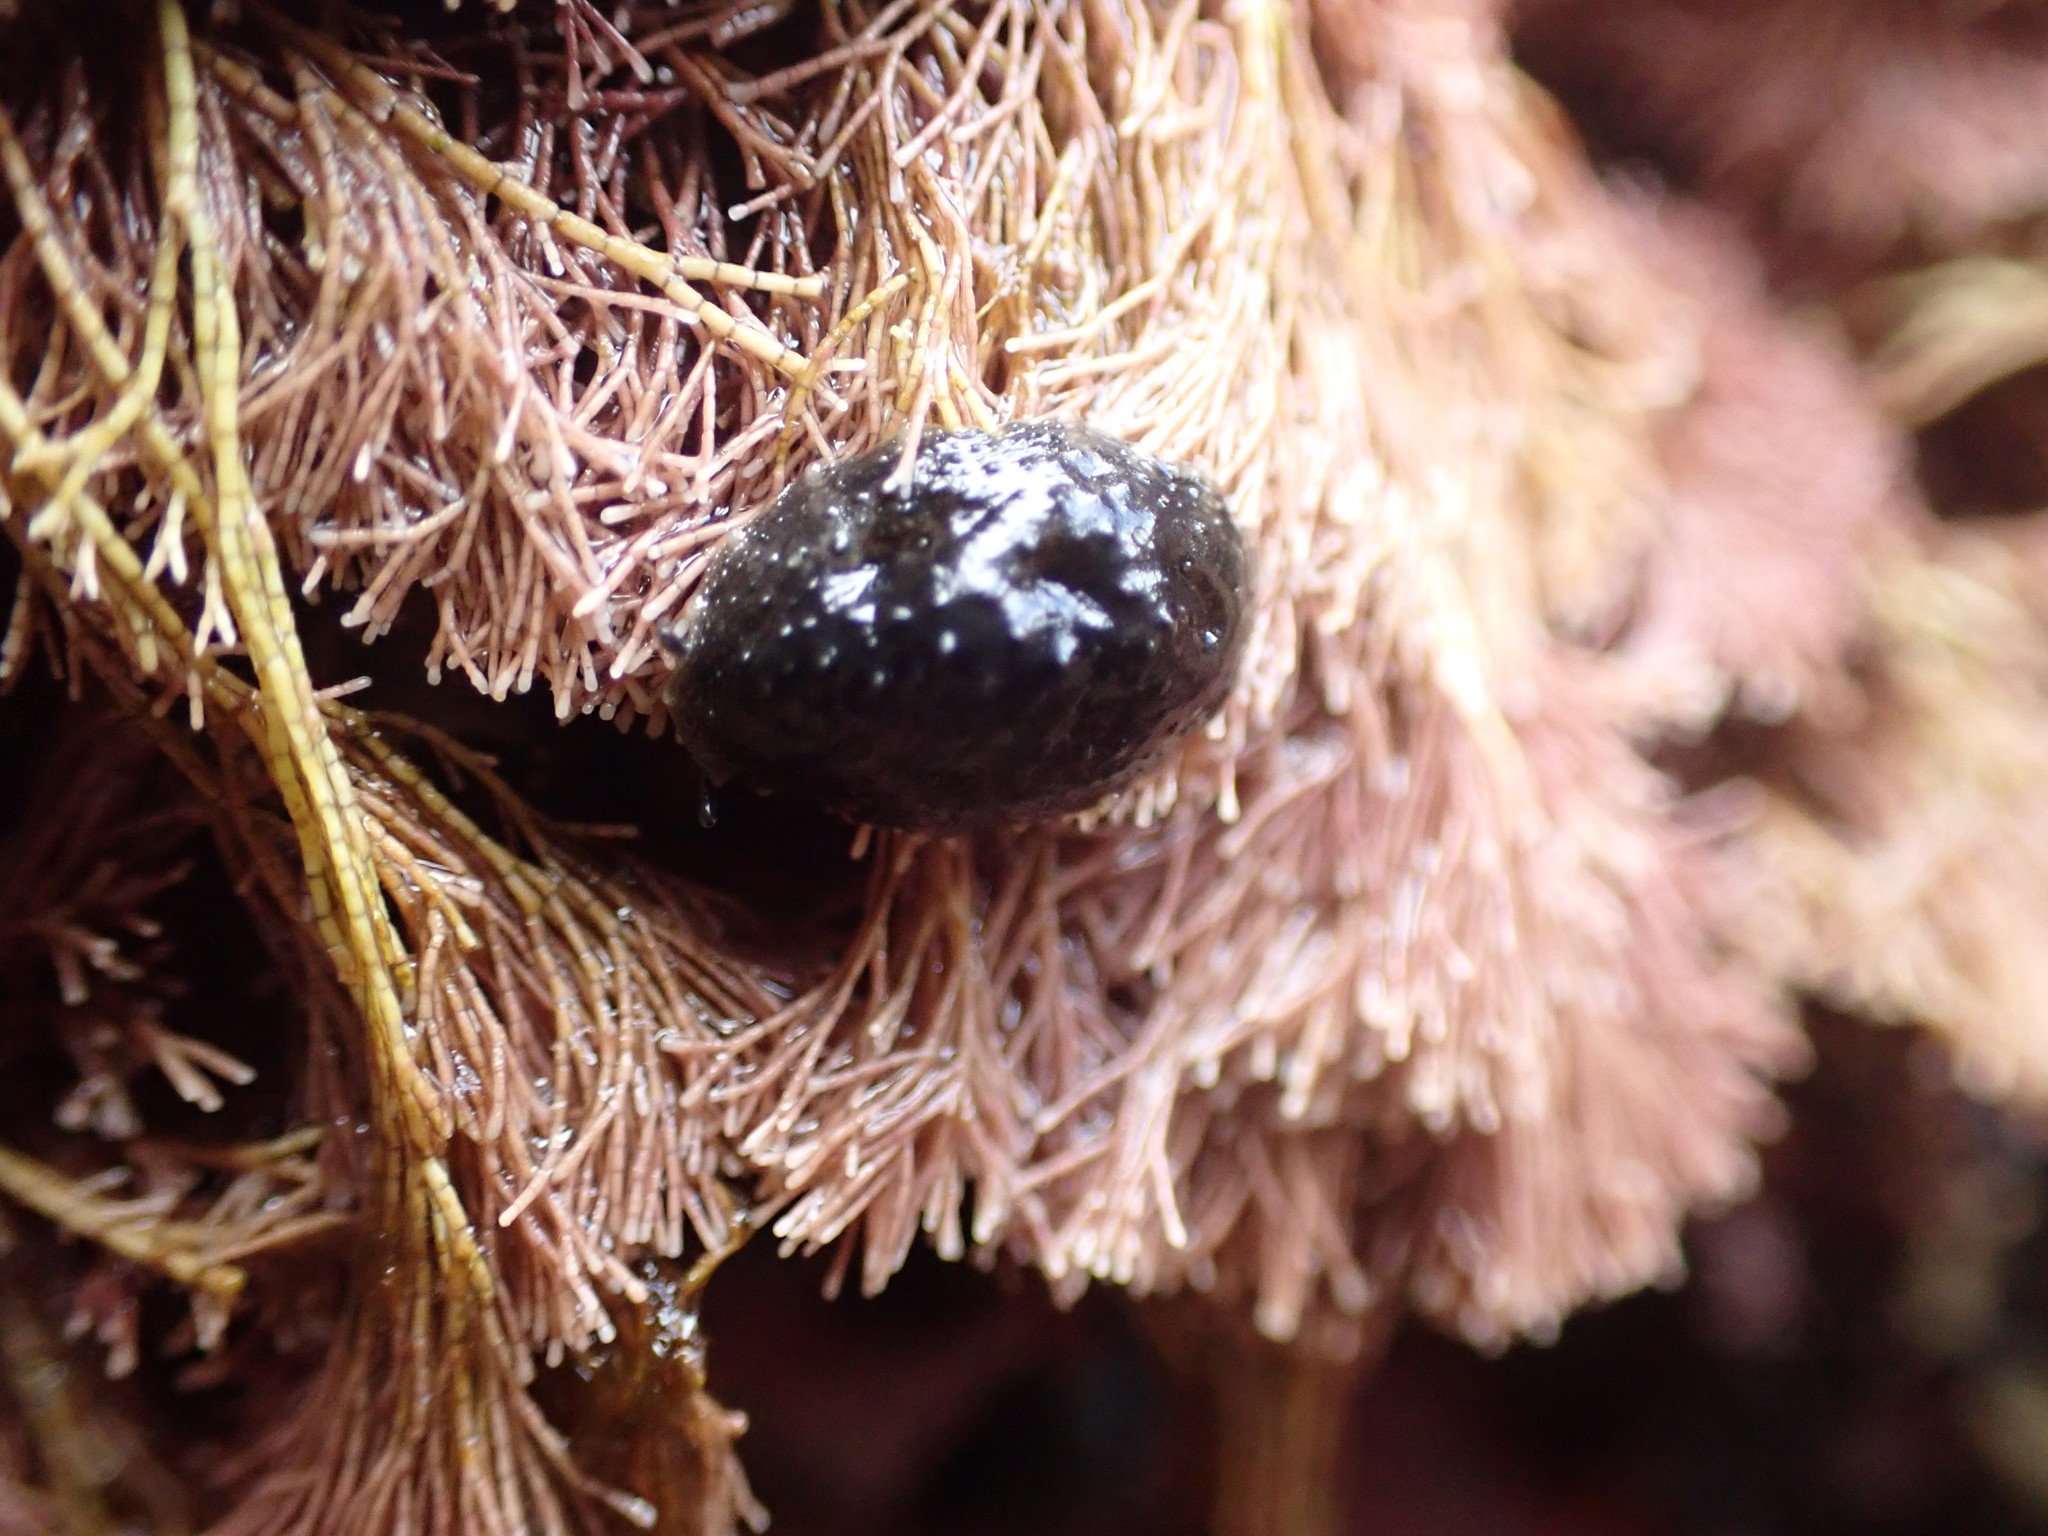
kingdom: Animalia
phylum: Mollusca
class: Gastropoda
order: Systellommatophora
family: Onchidiidae
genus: Onchidella
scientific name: Onchidella nigricans
